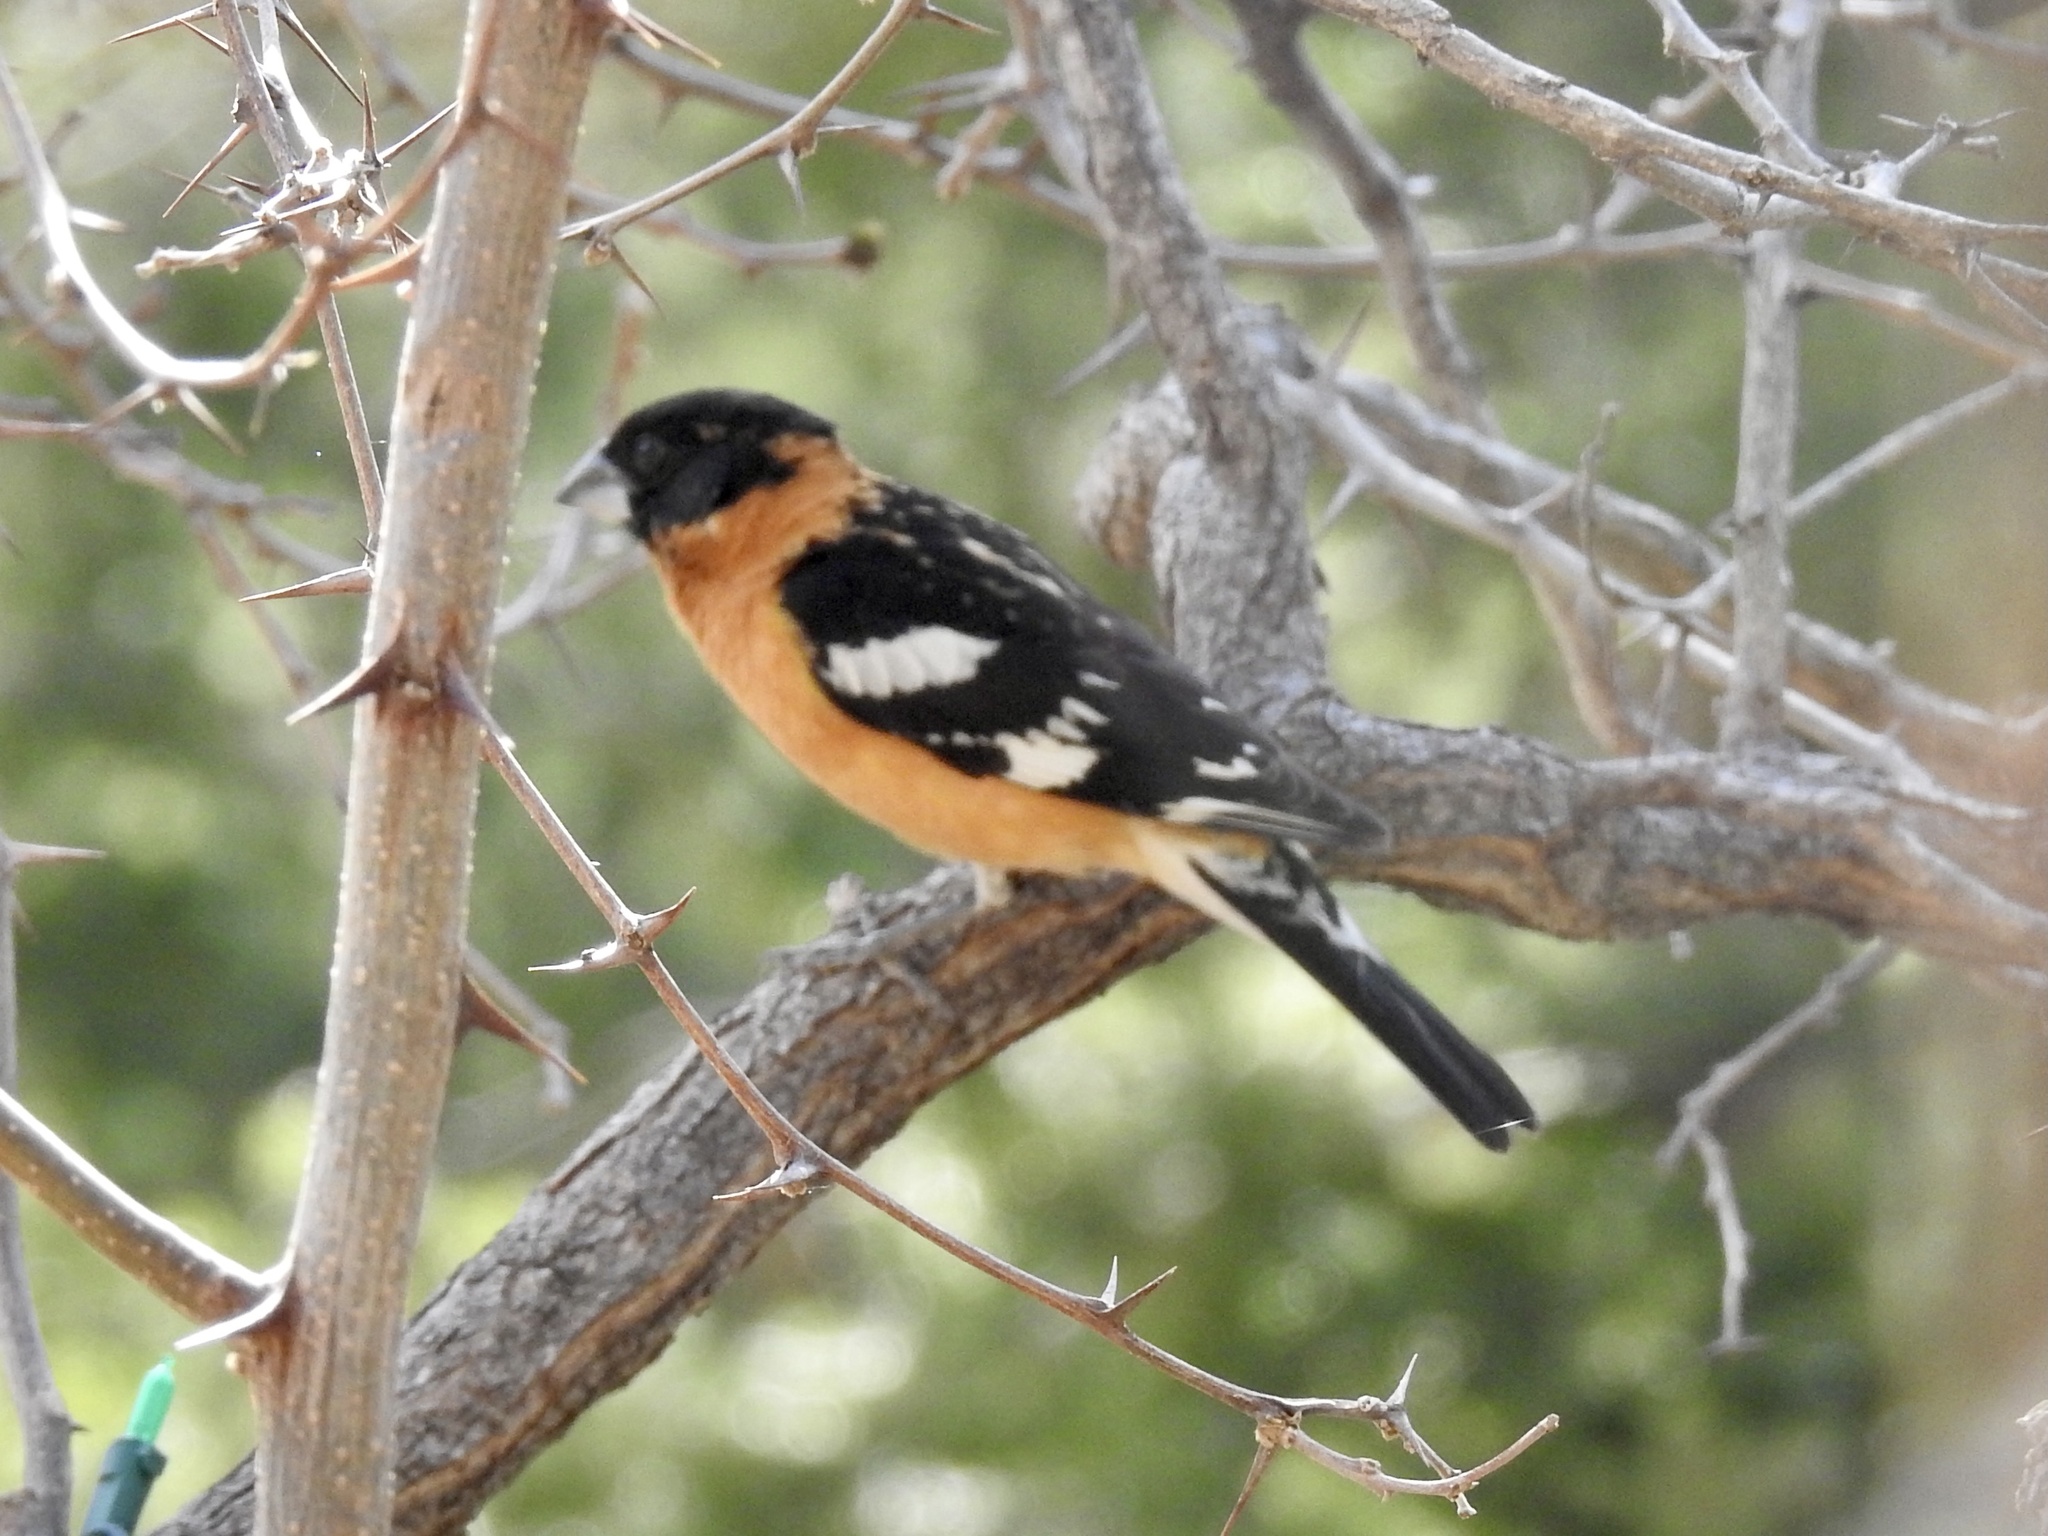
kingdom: Animalia
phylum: Chordata
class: Aves
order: Passeriformes
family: Cardinalidae
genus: Pheucticus
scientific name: Pheucticus melanocephalus
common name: Black-headed grosbeak
